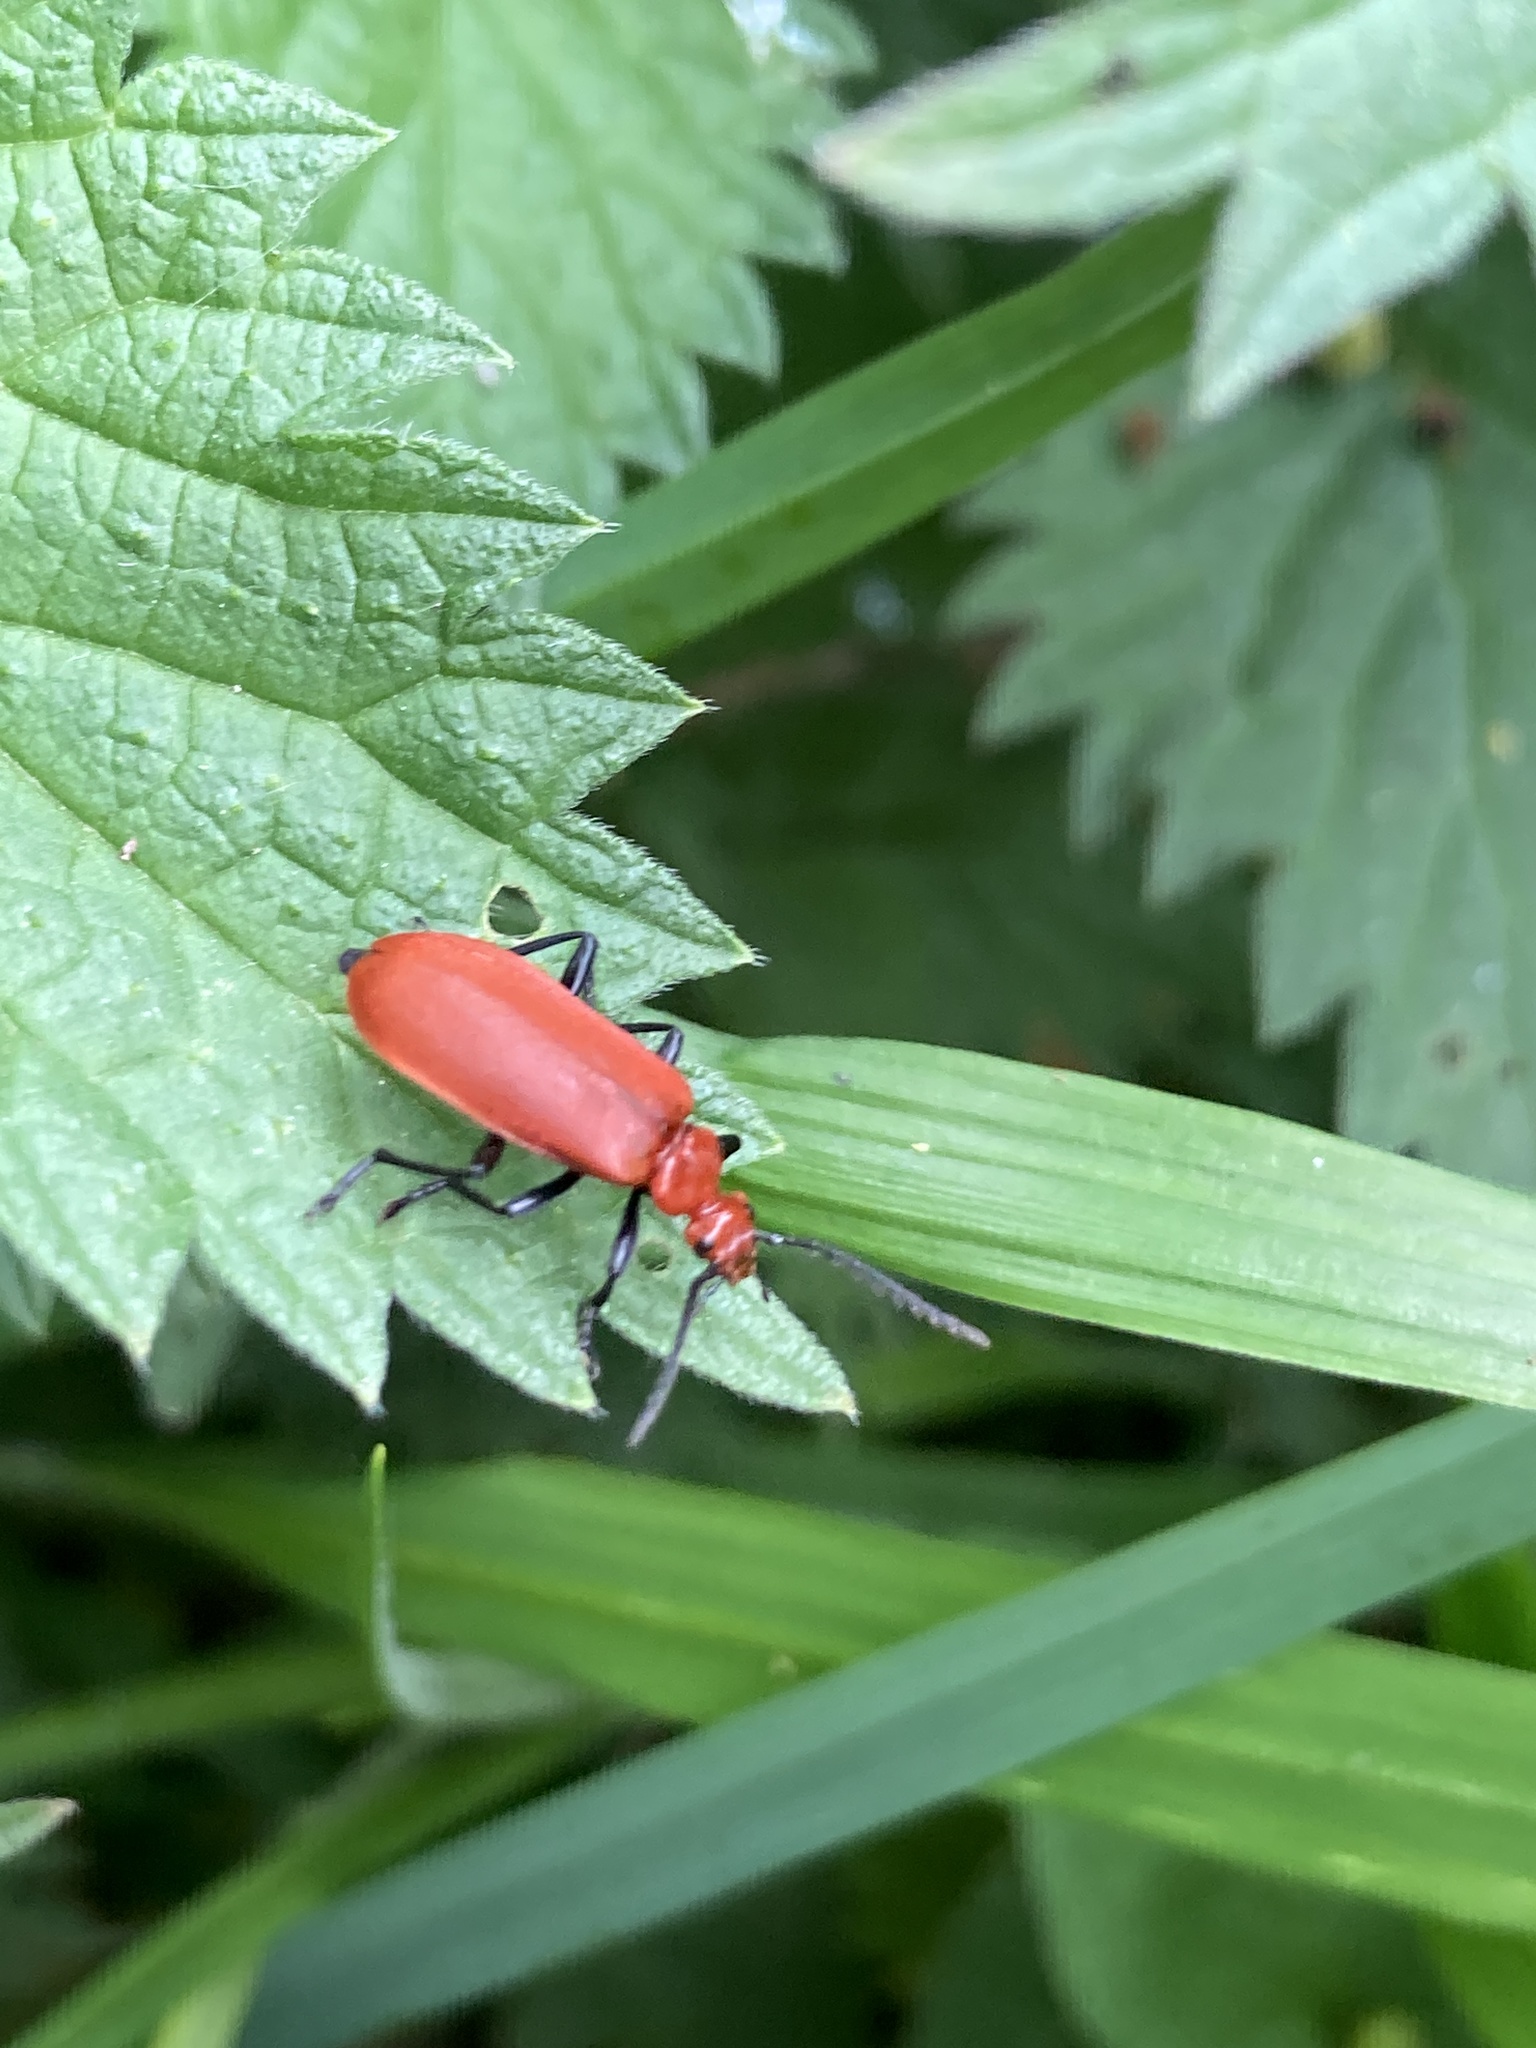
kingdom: Animalia
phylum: Arthropoda
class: Insecta
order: Coleoptera
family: Pyrochroidae
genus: Pyrochroa
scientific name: Pyrochroa serraticornis
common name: Red-headed cardinal beetle
